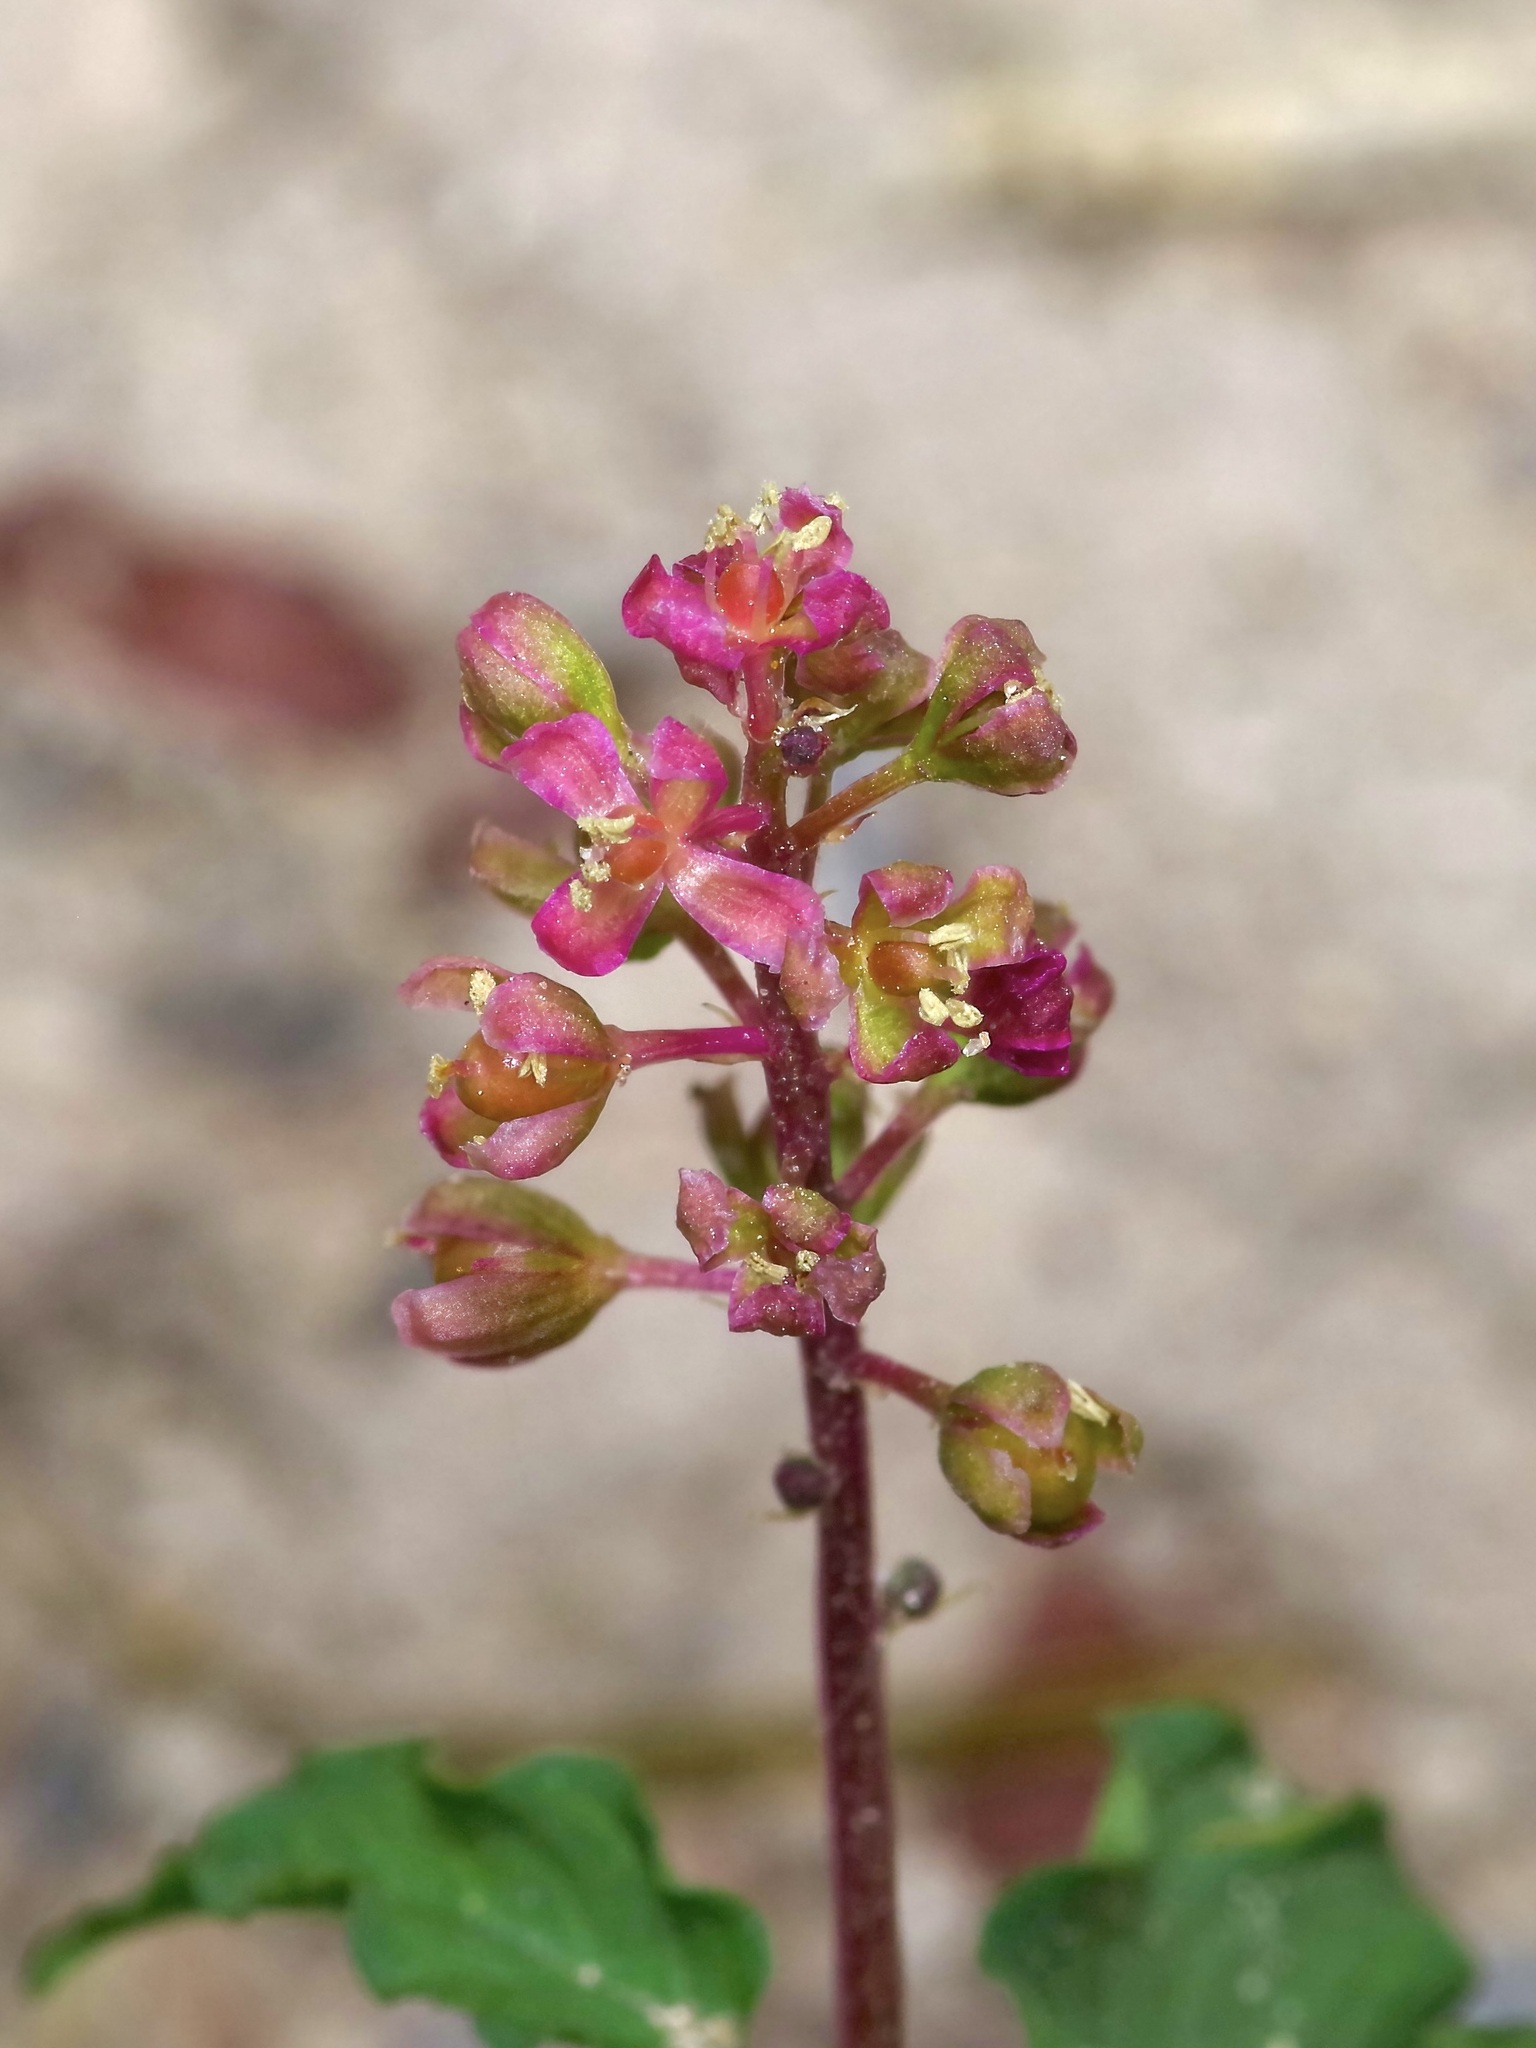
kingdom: Plantae
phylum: Tracheophyta
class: Magnoliopsida
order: Caryophyllales
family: Phytolaccaceae
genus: Rivina
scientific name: Rivina humilis
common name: Rougeplant
